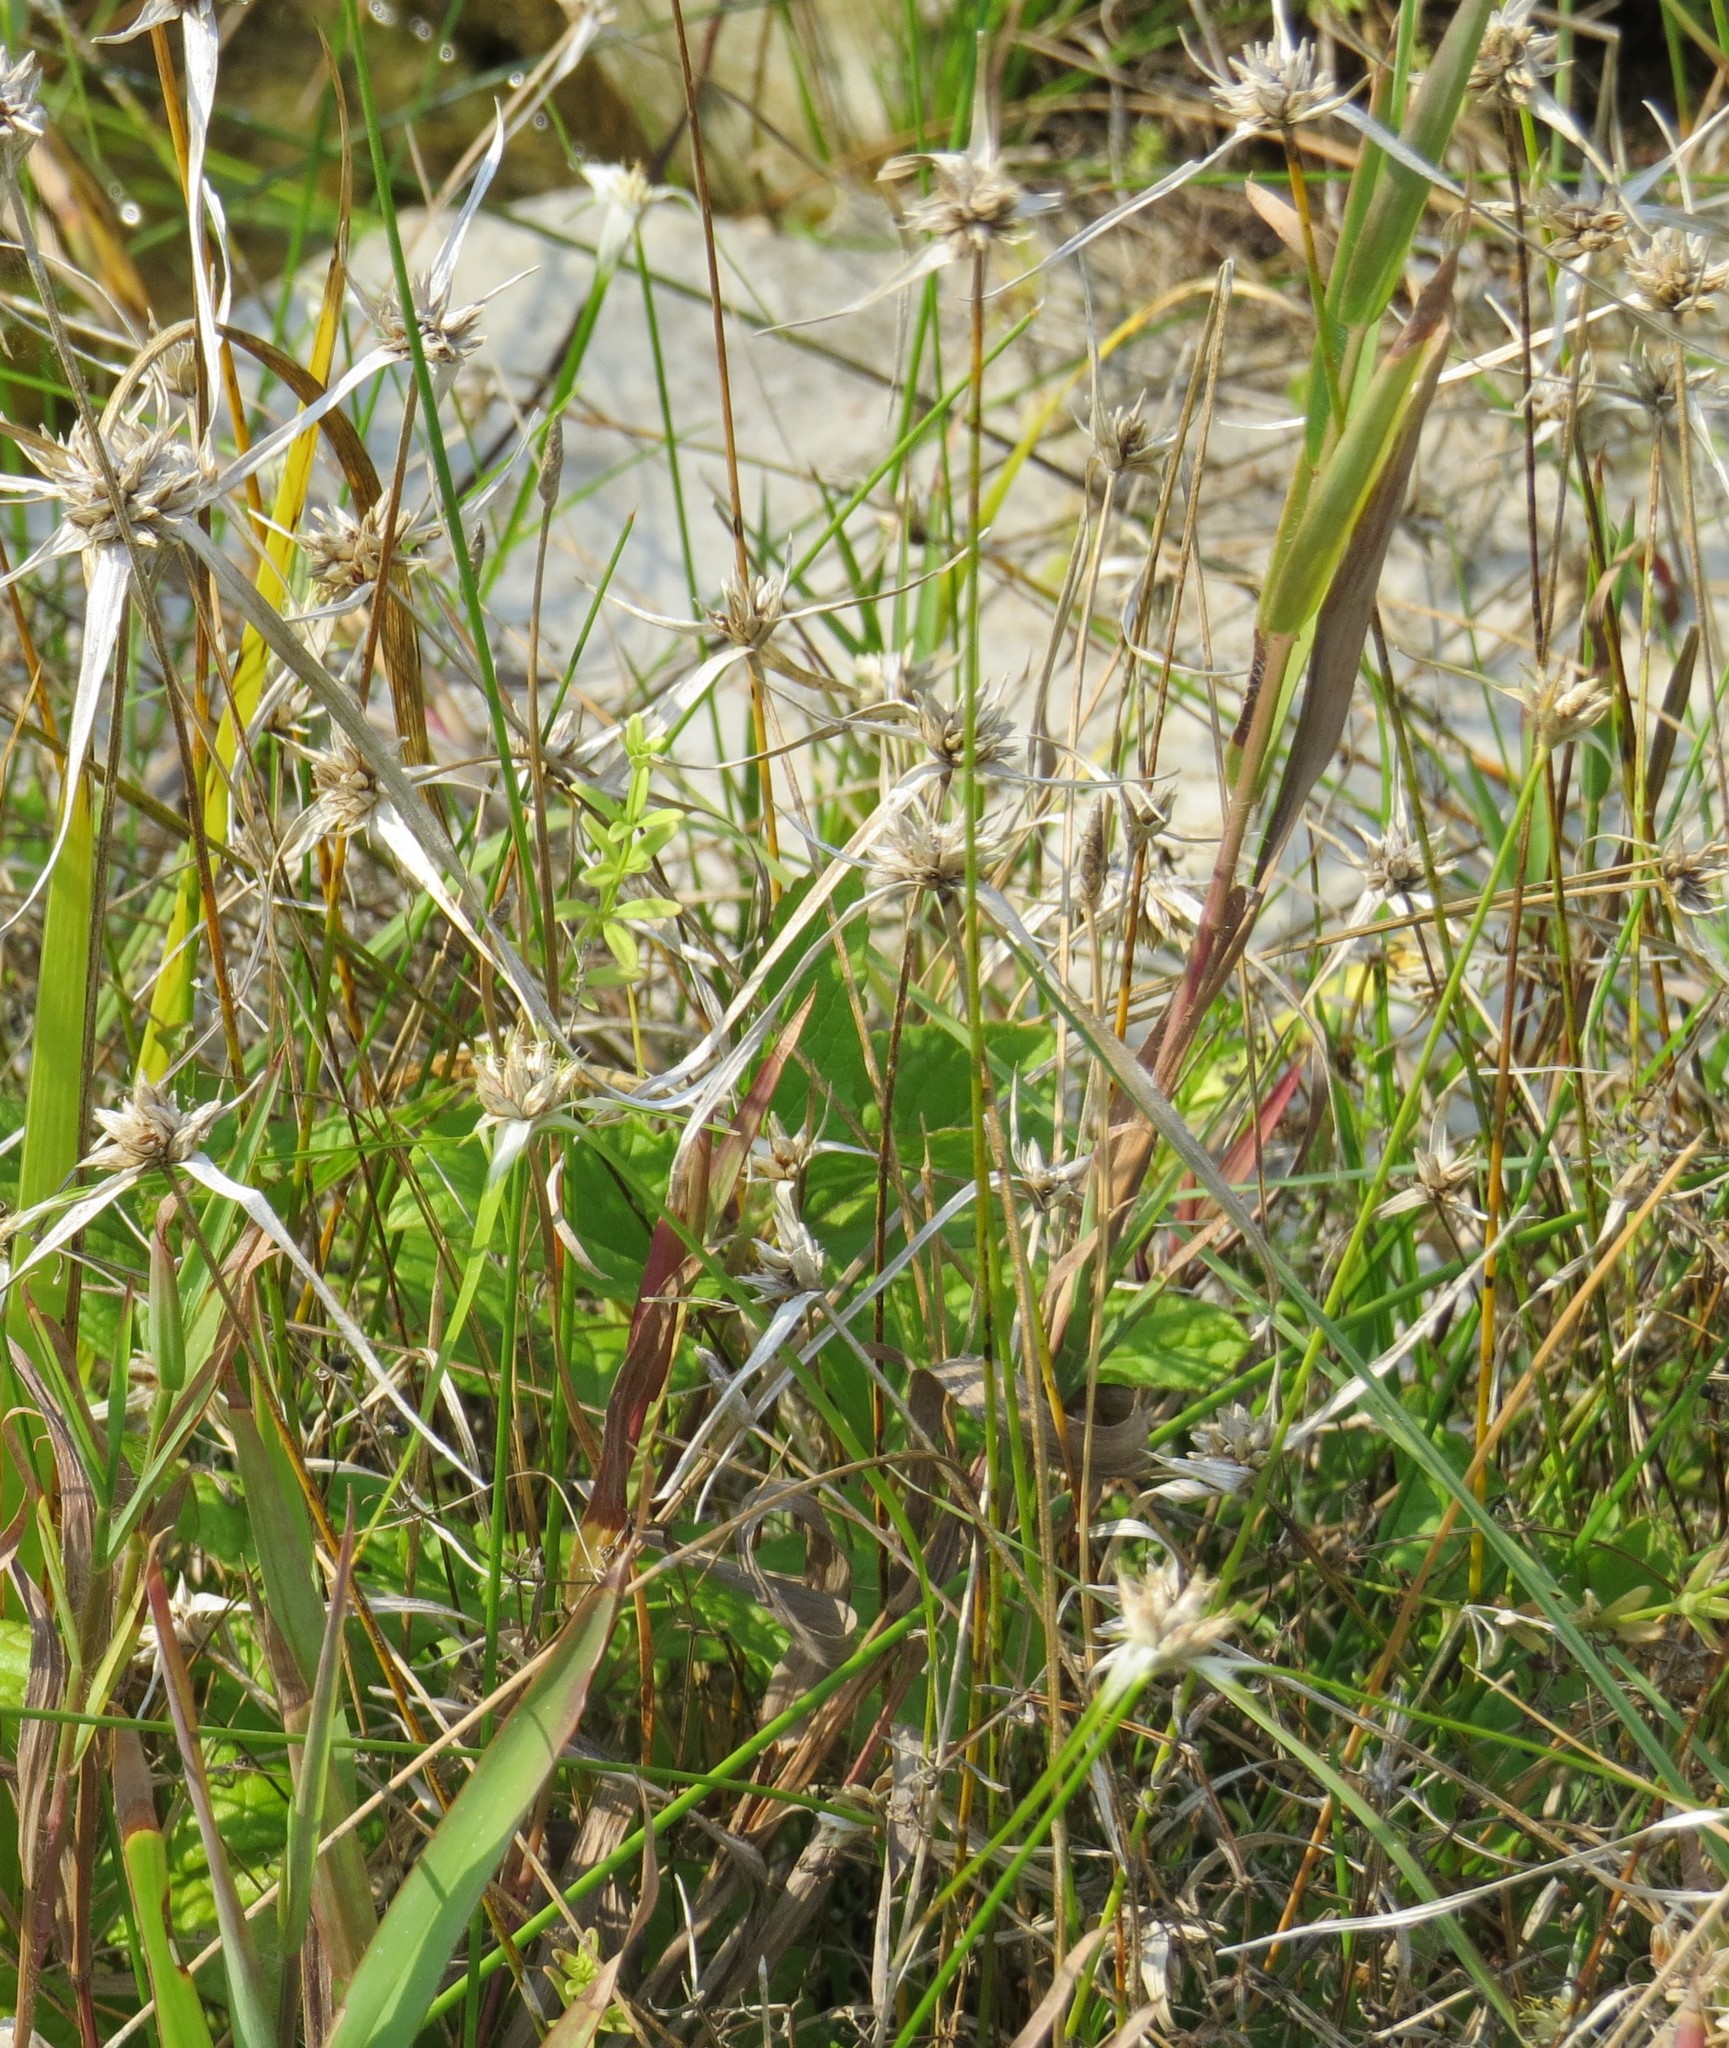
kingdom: Plantae
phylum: Tracheophyta
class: Liliopsida
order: Poales
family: Cyperaceae
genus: Rhynchospora
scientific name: Rhynchospora colorata
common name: Star sedge
